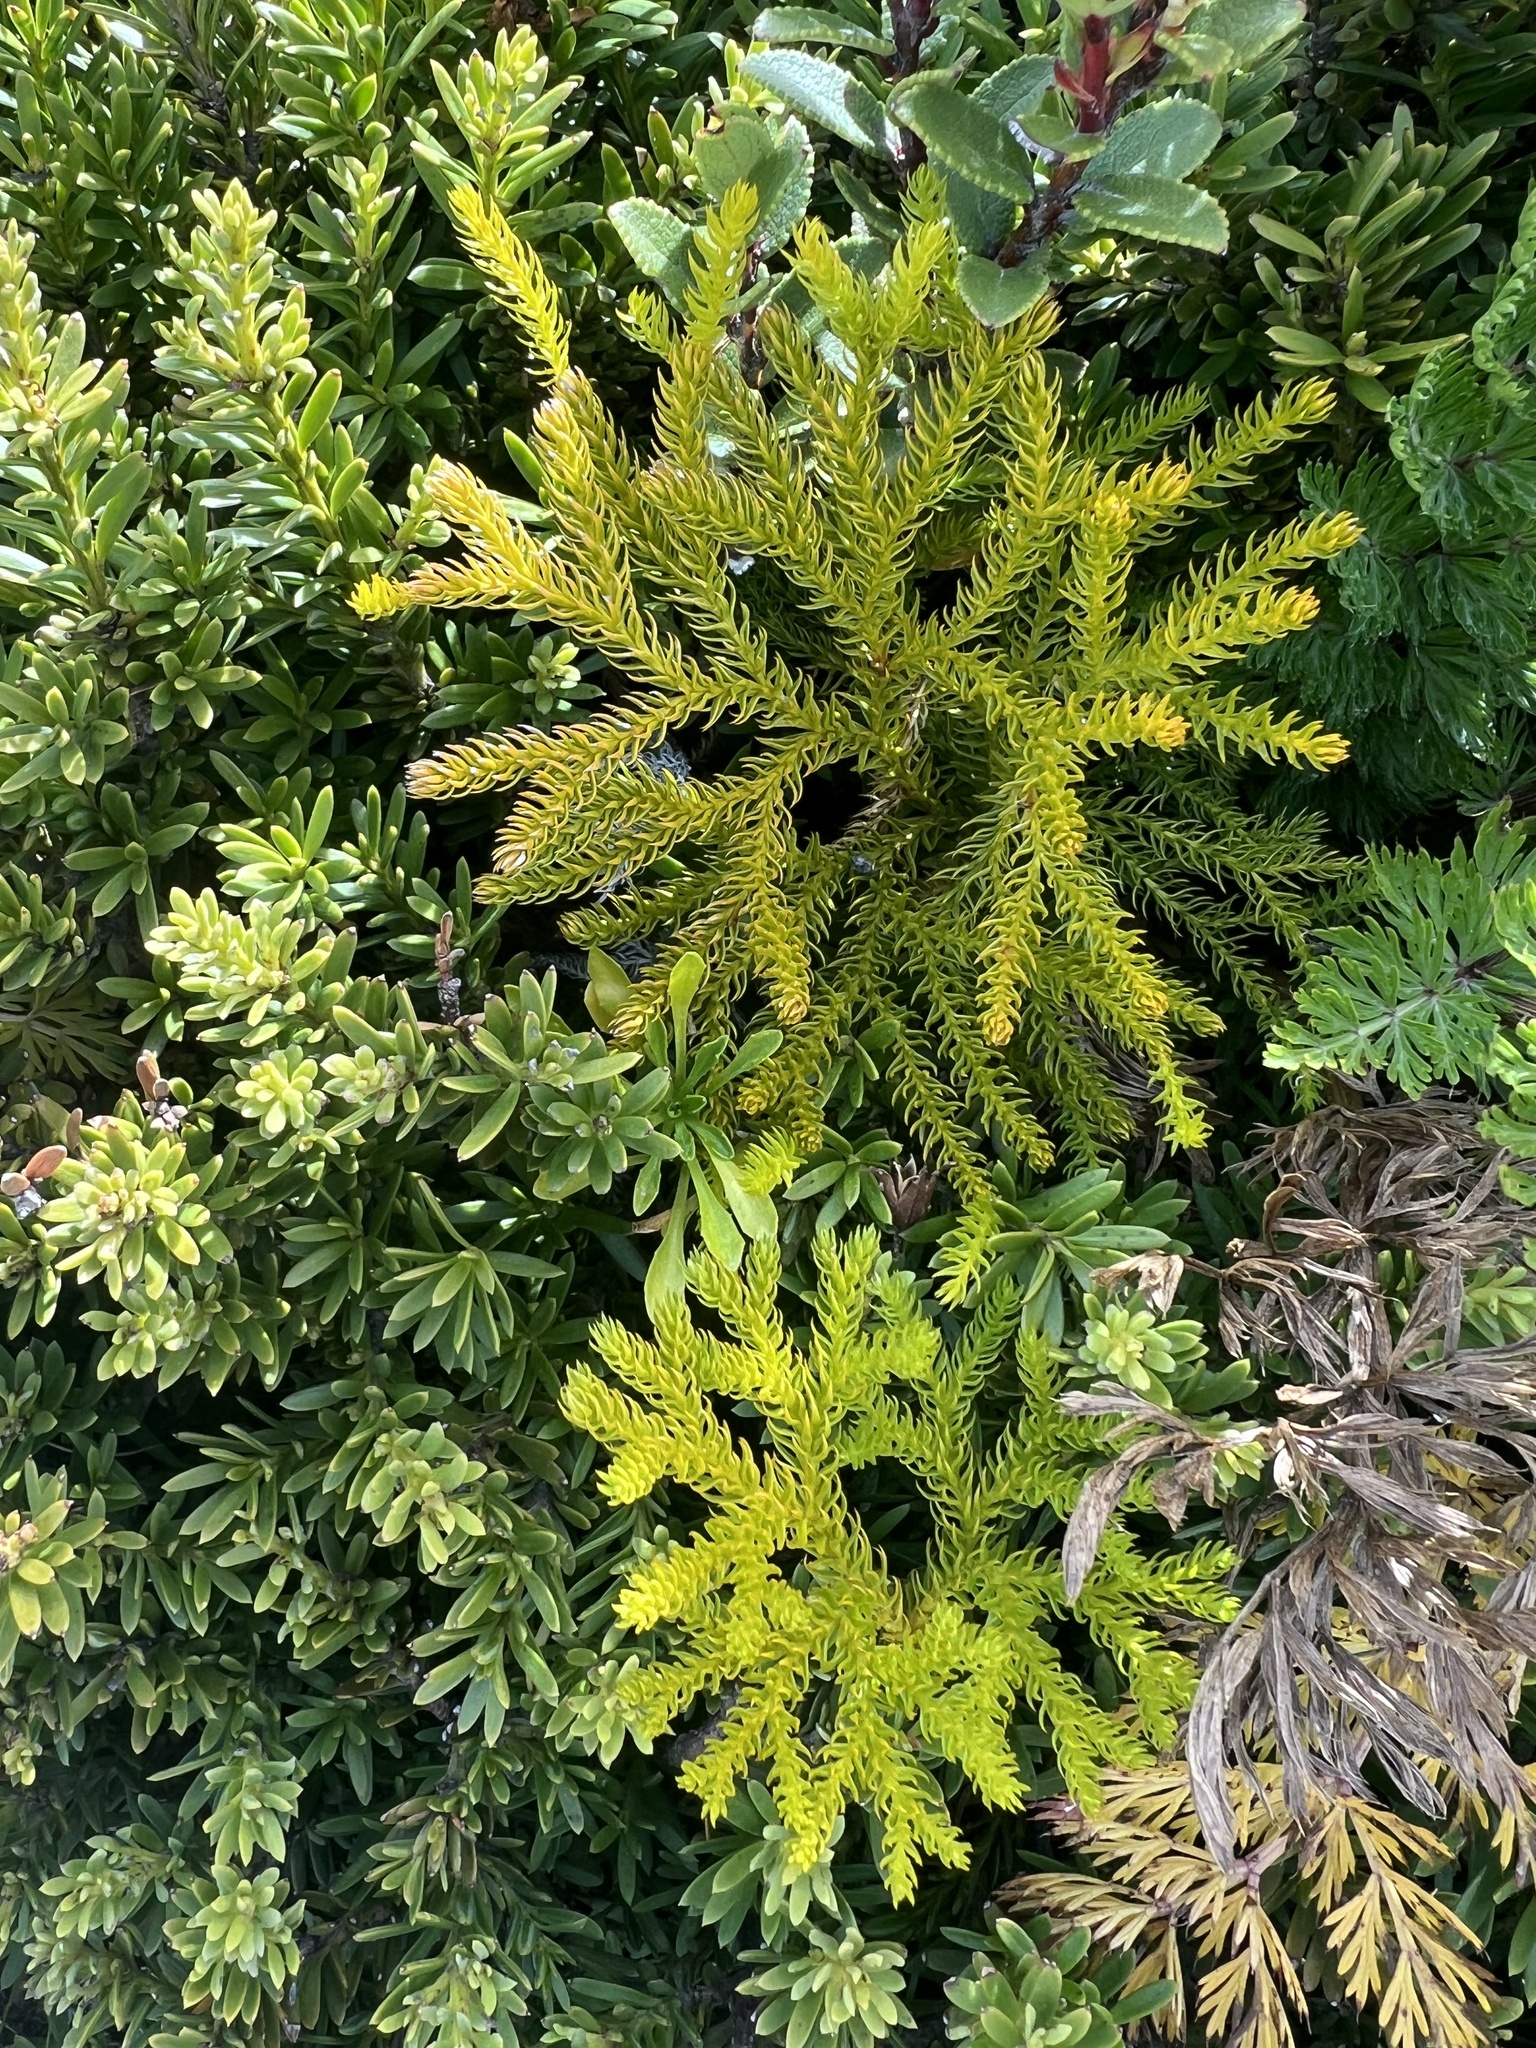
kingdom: Plantae
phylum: Tracheophyta
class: Lycopodiopsida
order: Lycopodiales
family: Lycopodiaceae
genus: Austrolycopodium
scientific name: Austrolycopodium fastigiatum
